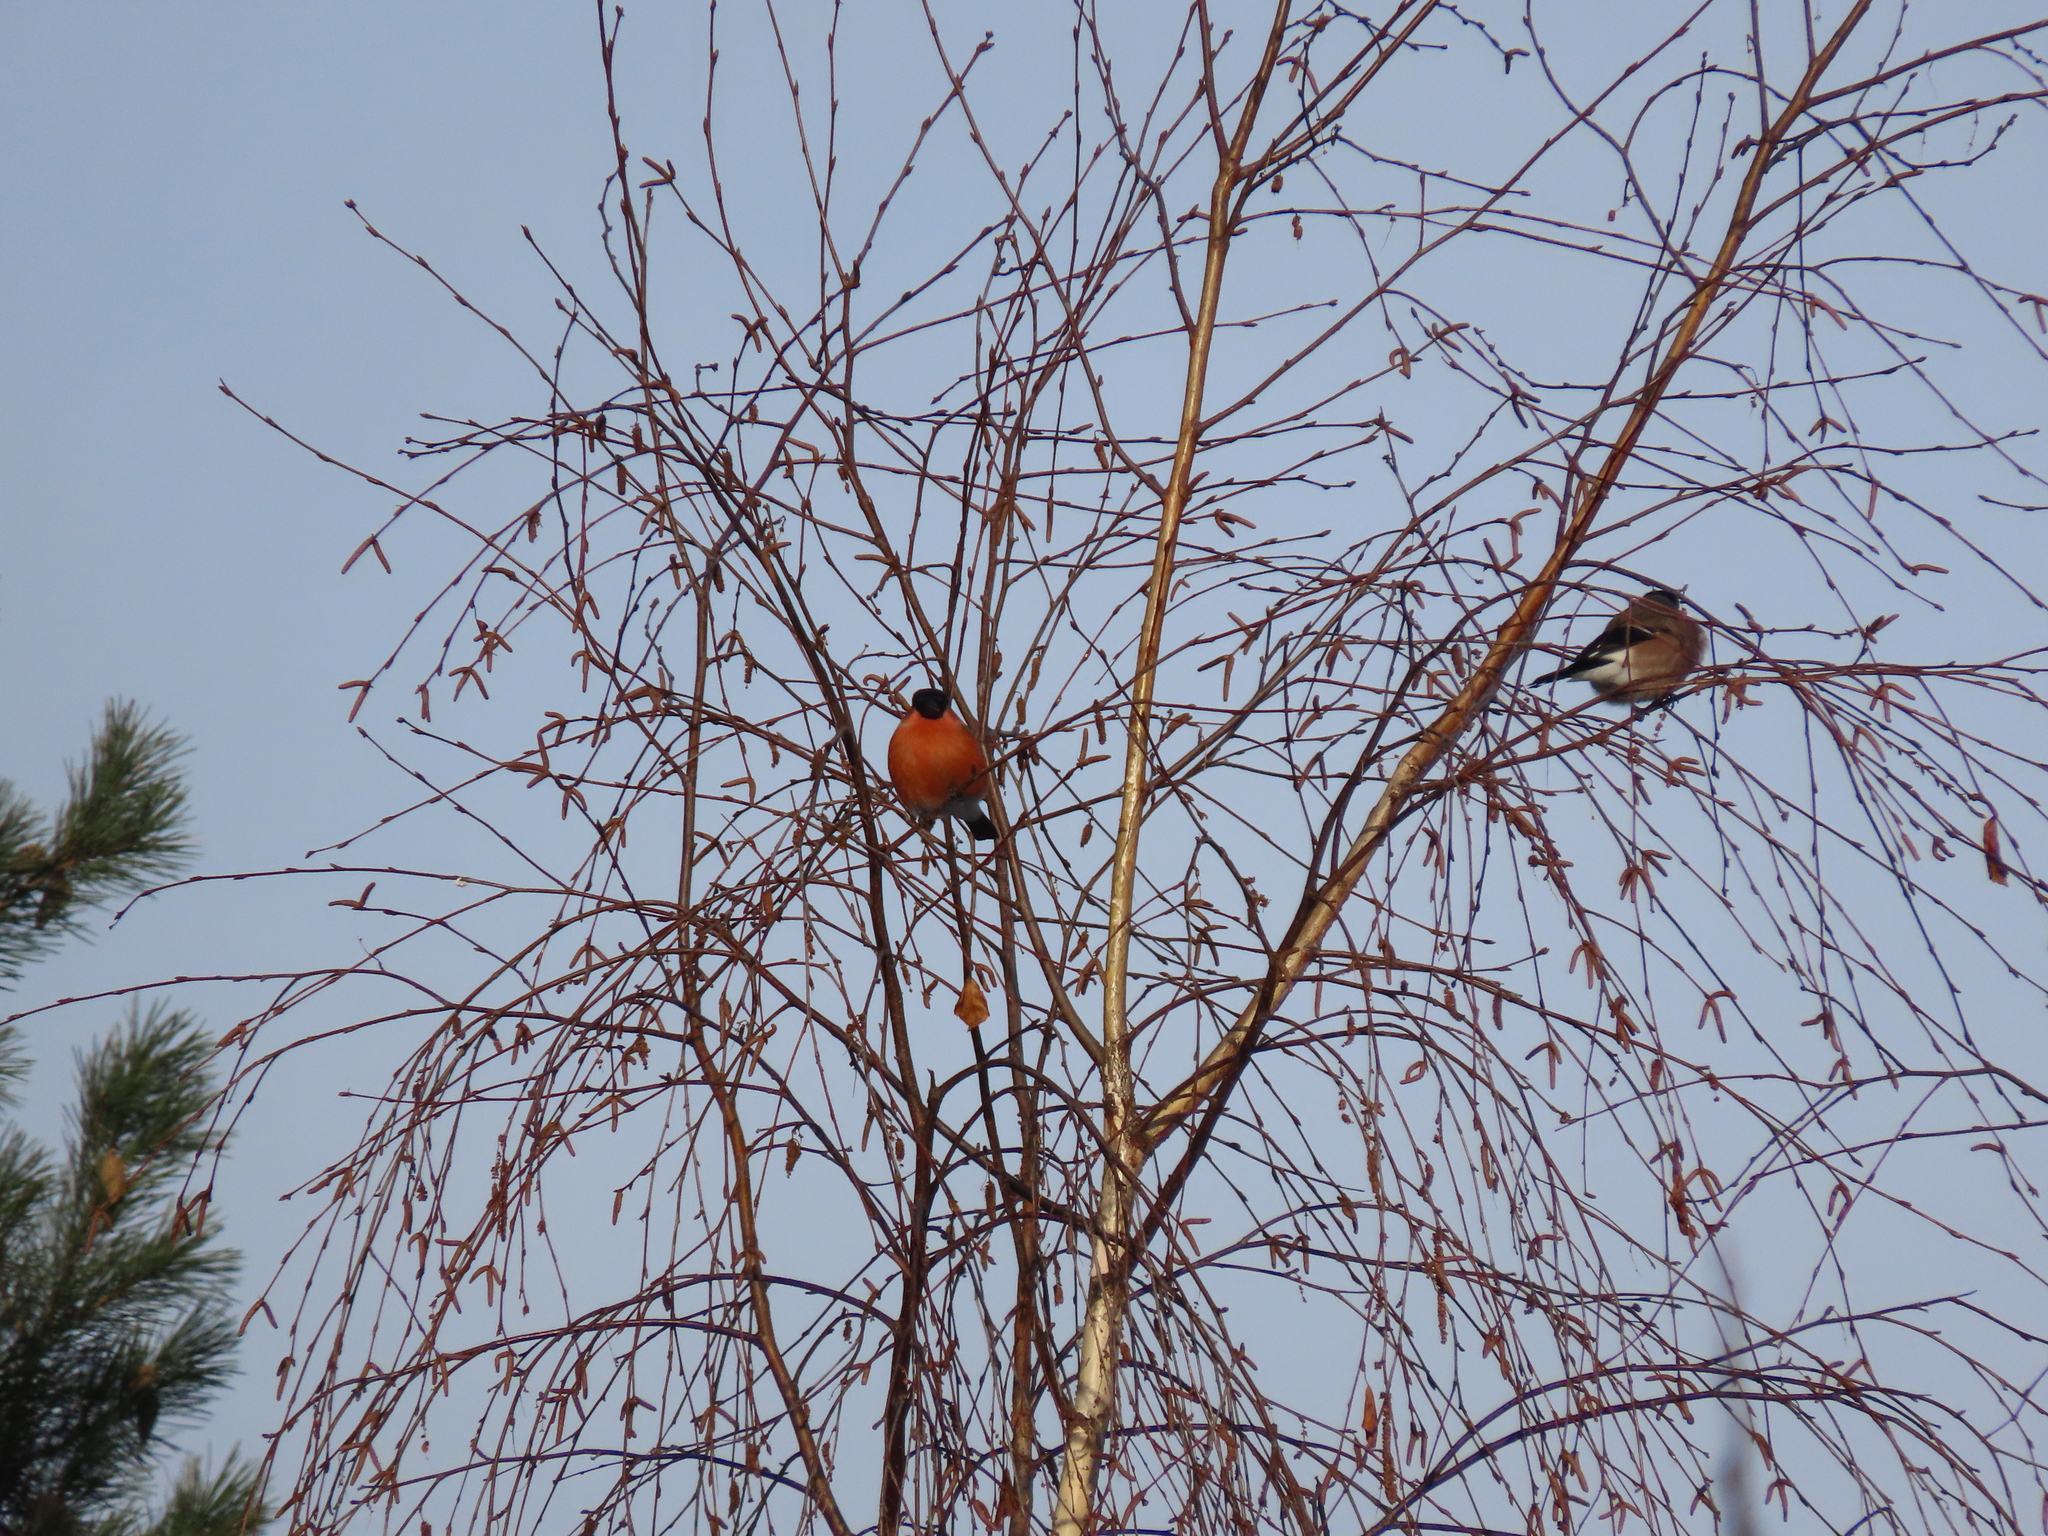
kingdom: Animalia
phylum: Chordata
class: Aves
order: Passeriformes
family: Fringillidae
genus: Pyrrhula
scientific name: Pyrrhula pyrrhula
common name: Eurasian bullfinch
